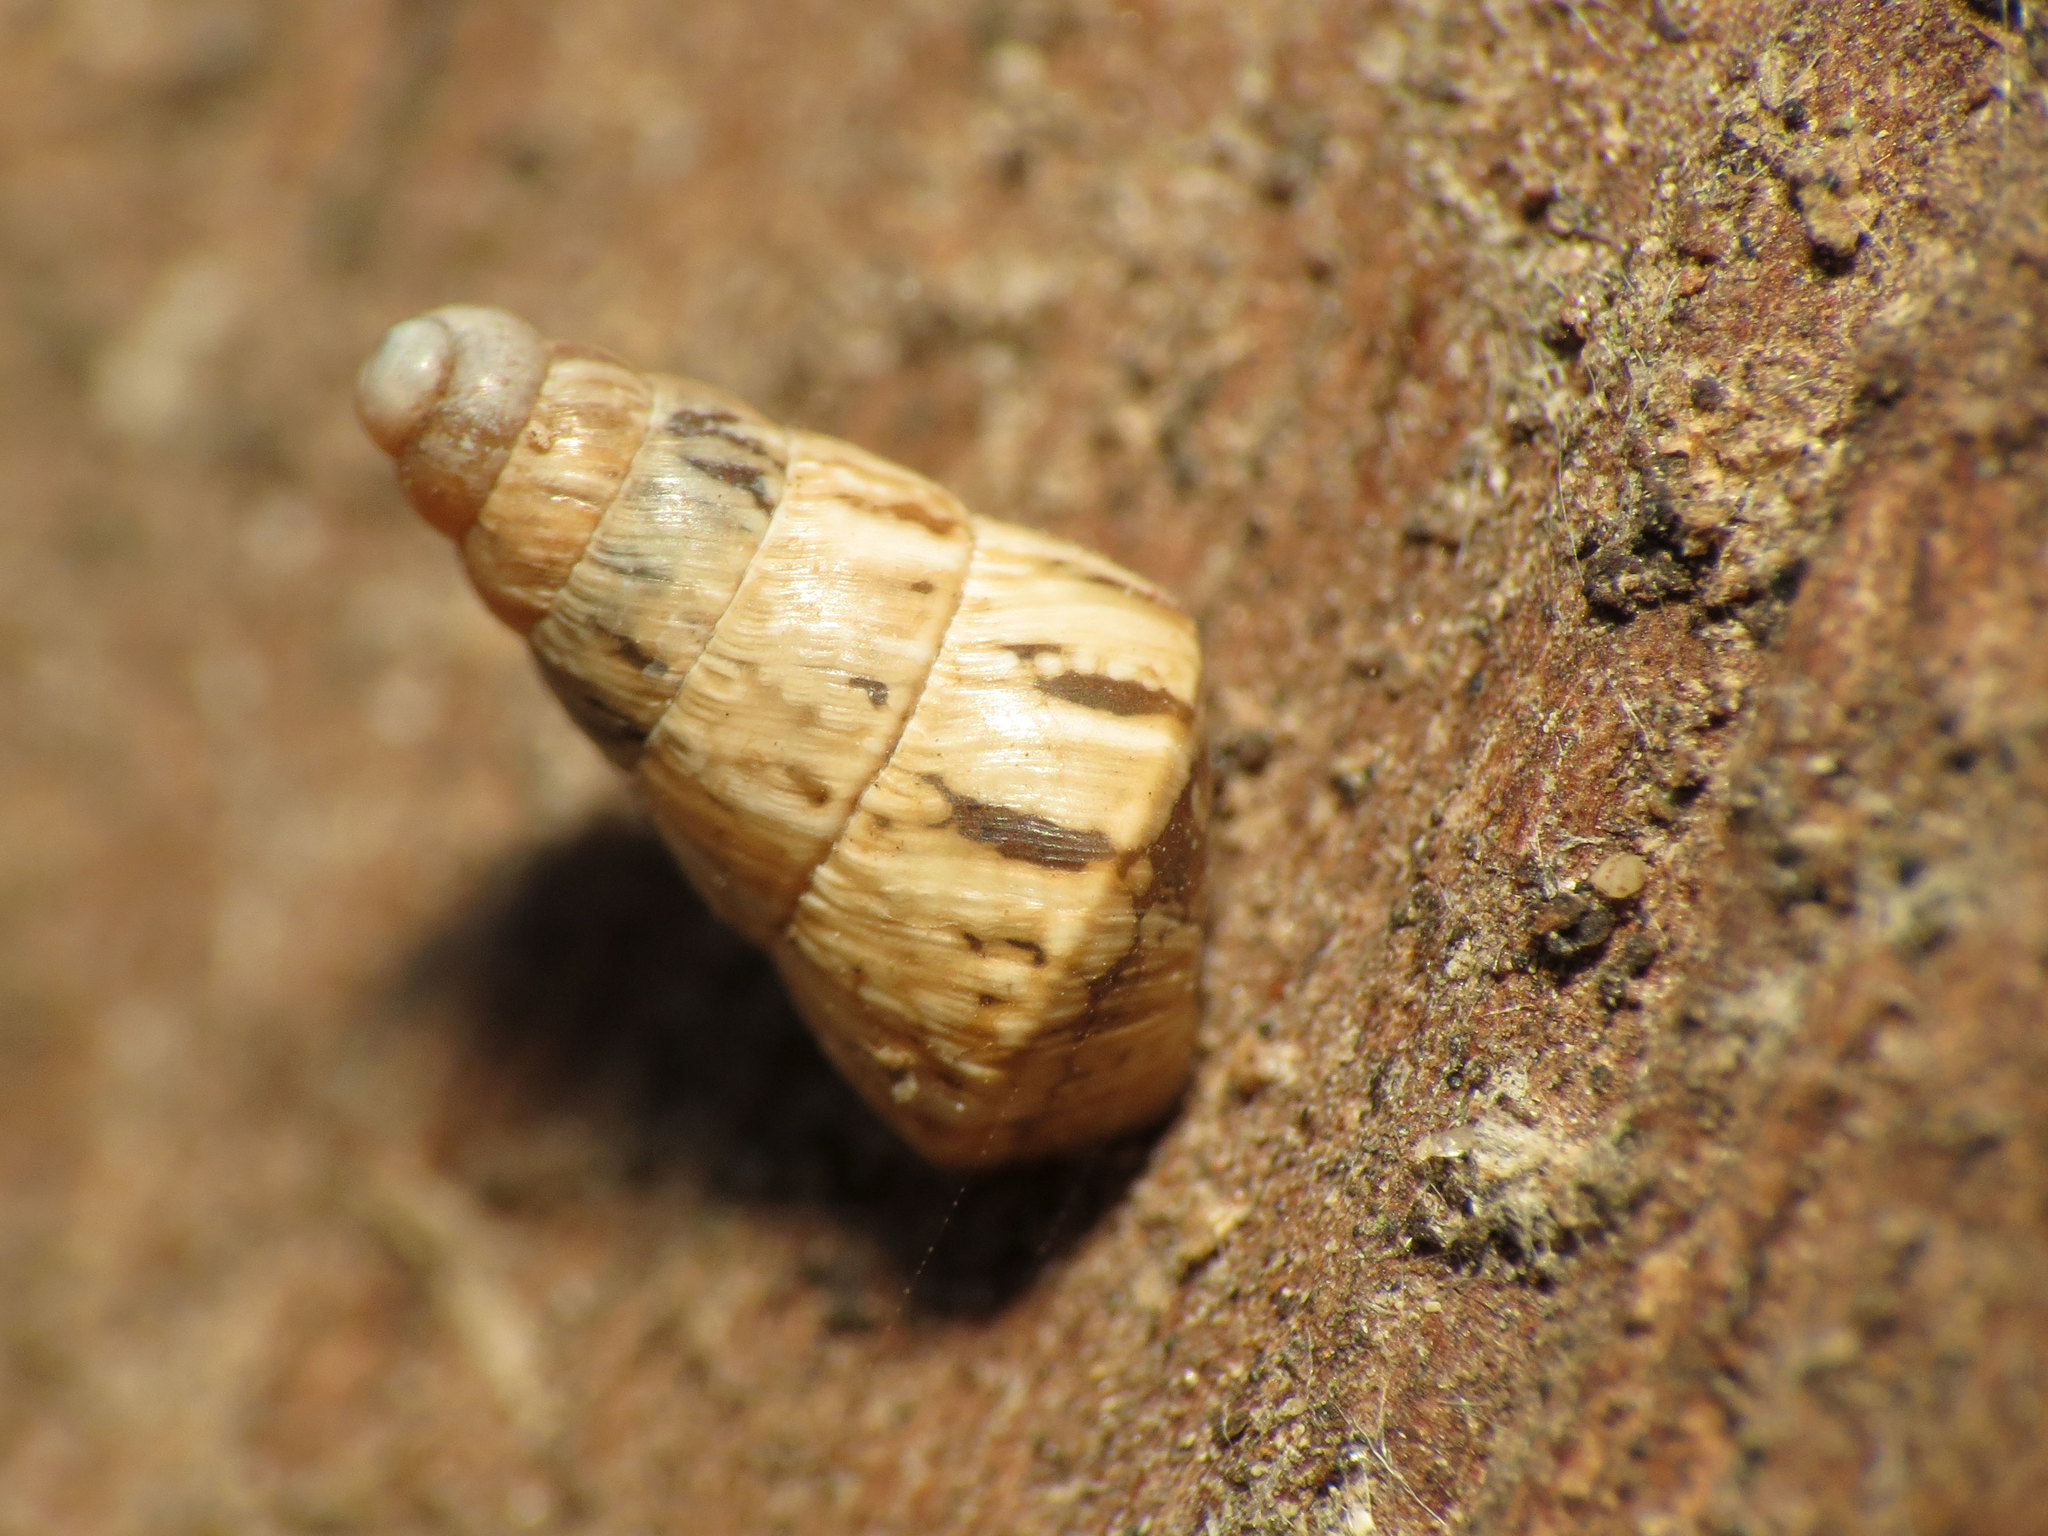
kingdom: Animalia
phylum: Mollusca
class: Gastropoda
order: Stylommatophora
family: Geomitridae
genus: Cochlicella
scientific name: Cochlicella acuta
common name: Pointed snail
